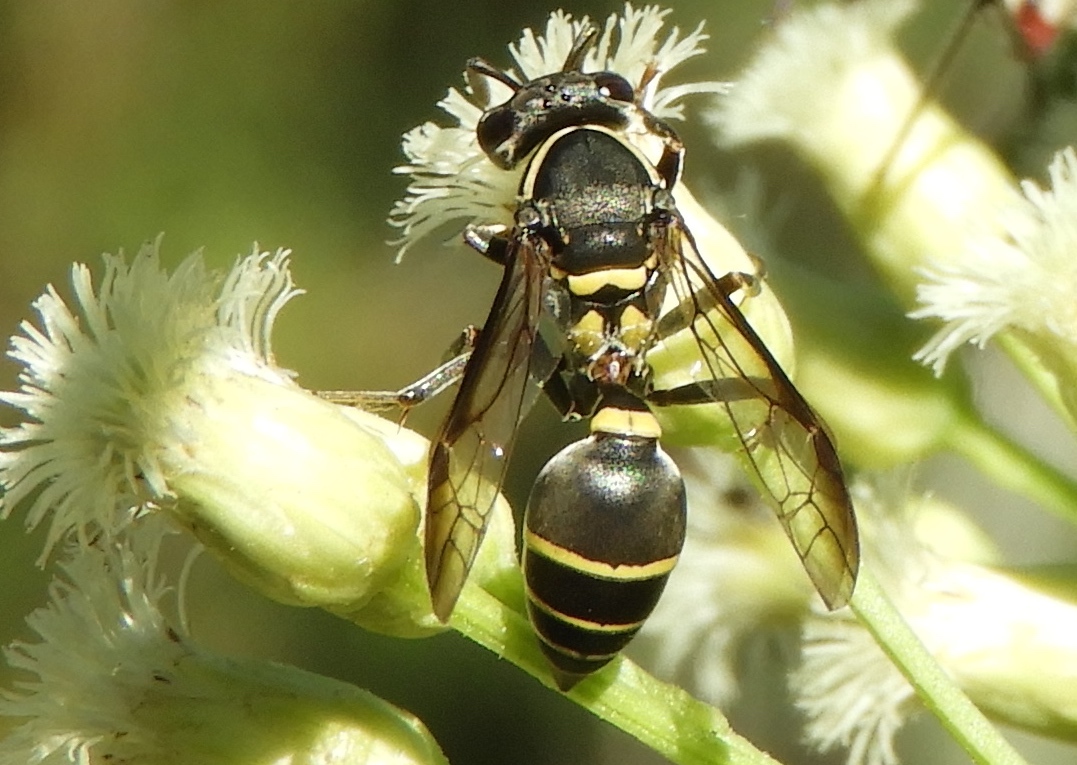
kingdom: Animalia
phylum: Arthropoda
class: Insecta
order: Hymenoptera
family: Eumenidae
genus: Polybia
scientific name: Polybia occidentalis
